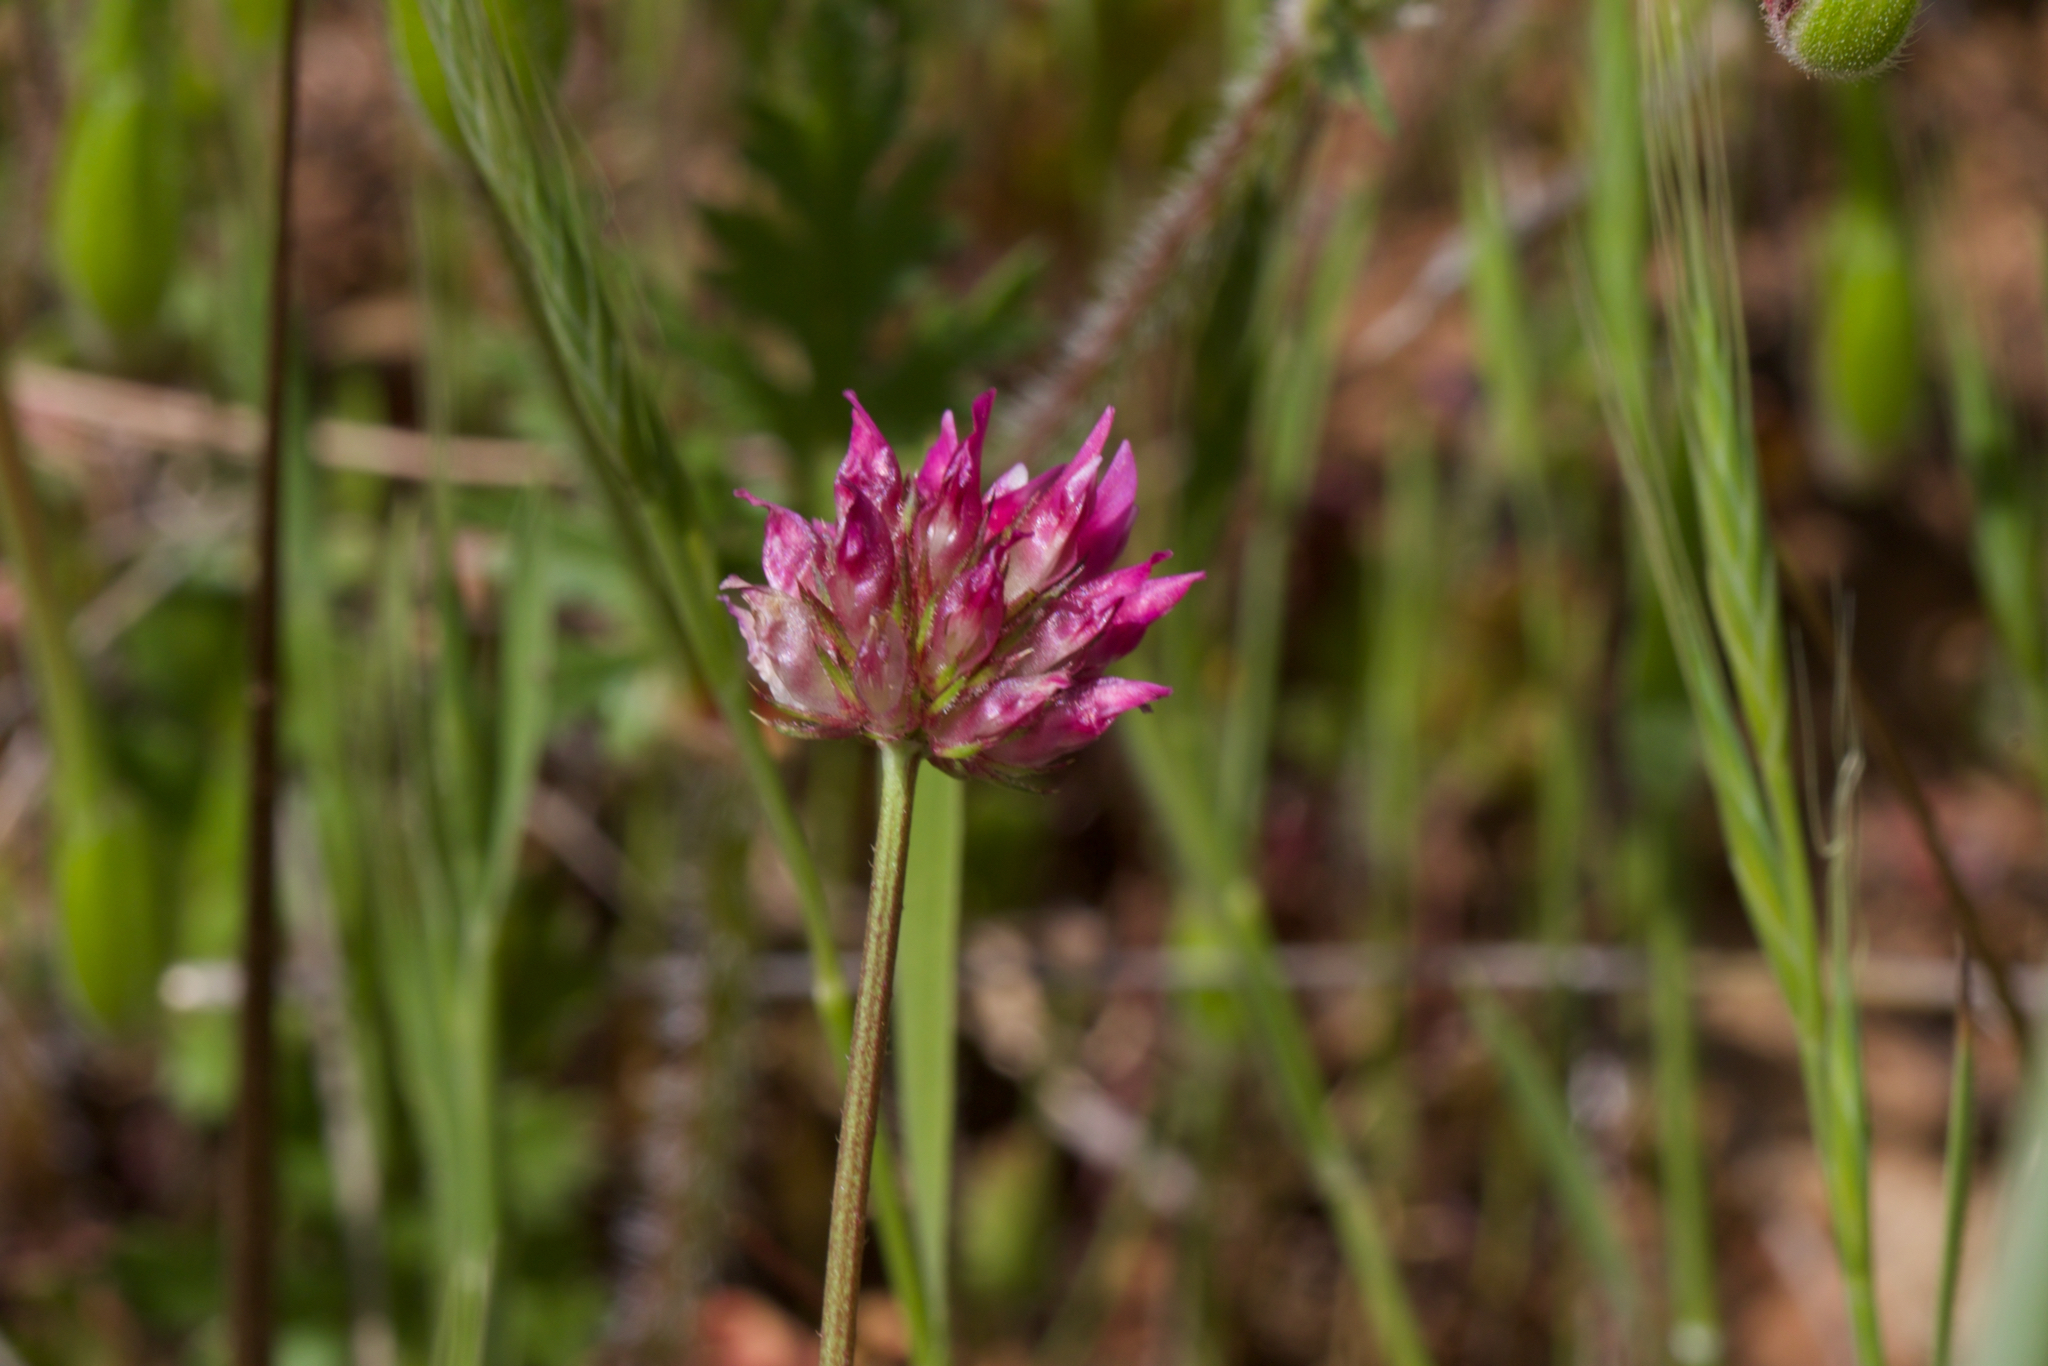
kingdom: Plantae
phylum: Tracheophyta
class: Magnoliopsida
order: Fabales
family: Fabaceae
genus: Trifolium
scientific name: Trifolium ciliolatum
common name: Foothill clover
